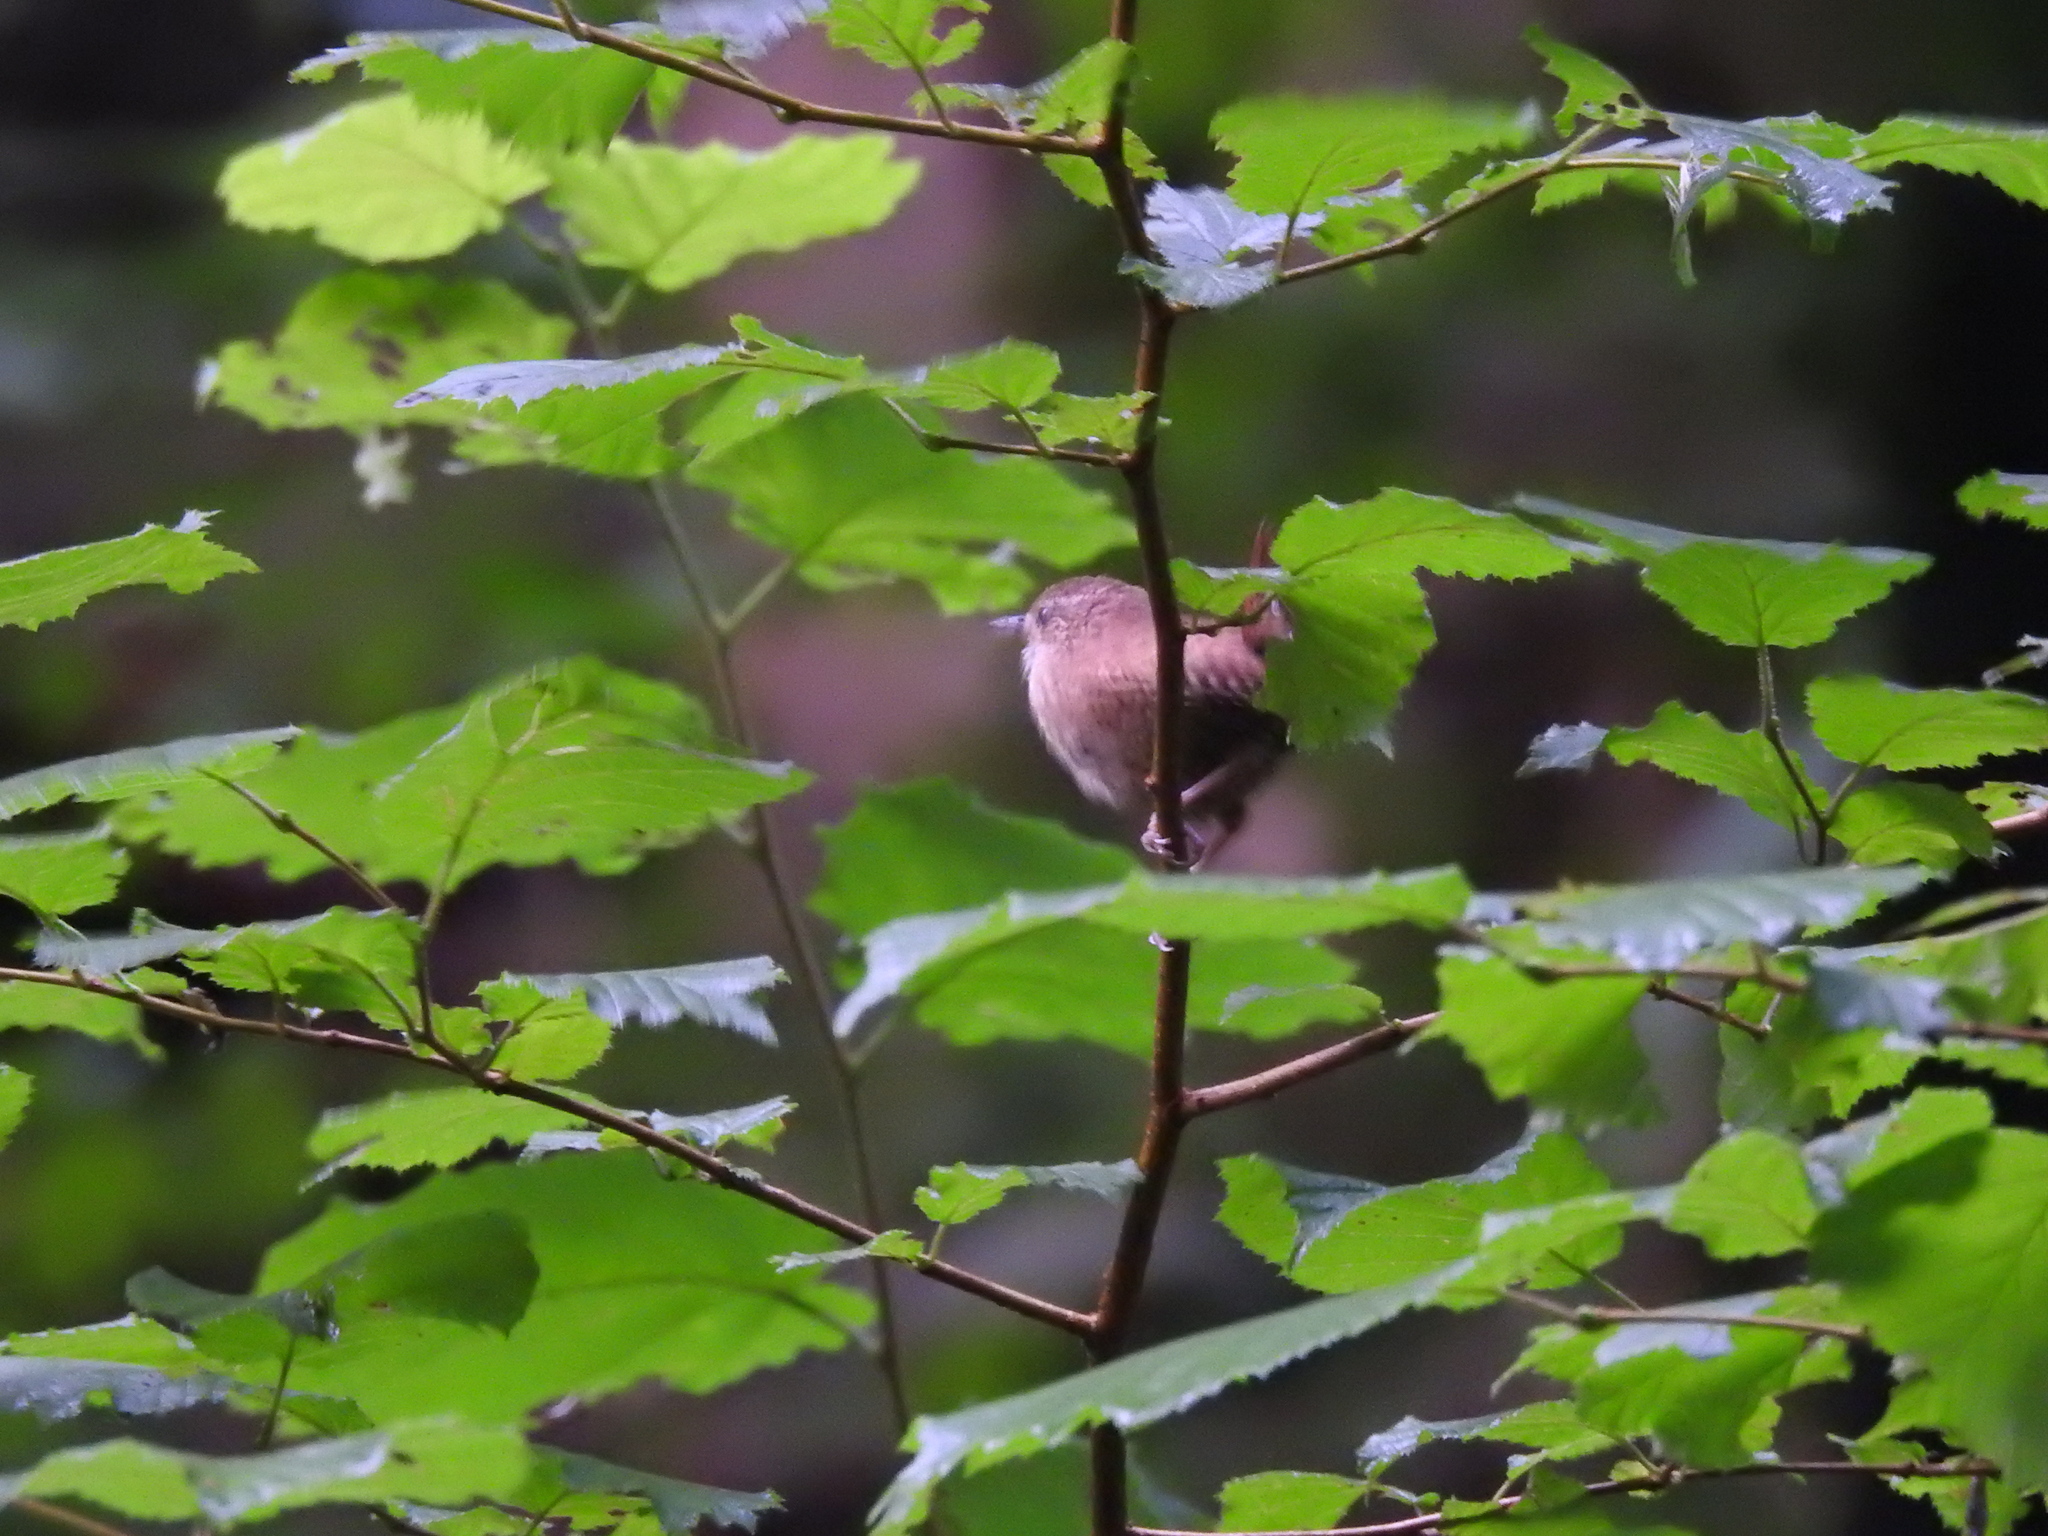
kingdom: Animalia
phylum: Chordata
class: Aves
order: Passeriformes
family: Troglodytidae
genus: Troglodytes
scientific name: Troglodytes troglodytes
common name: Eurasian wren
